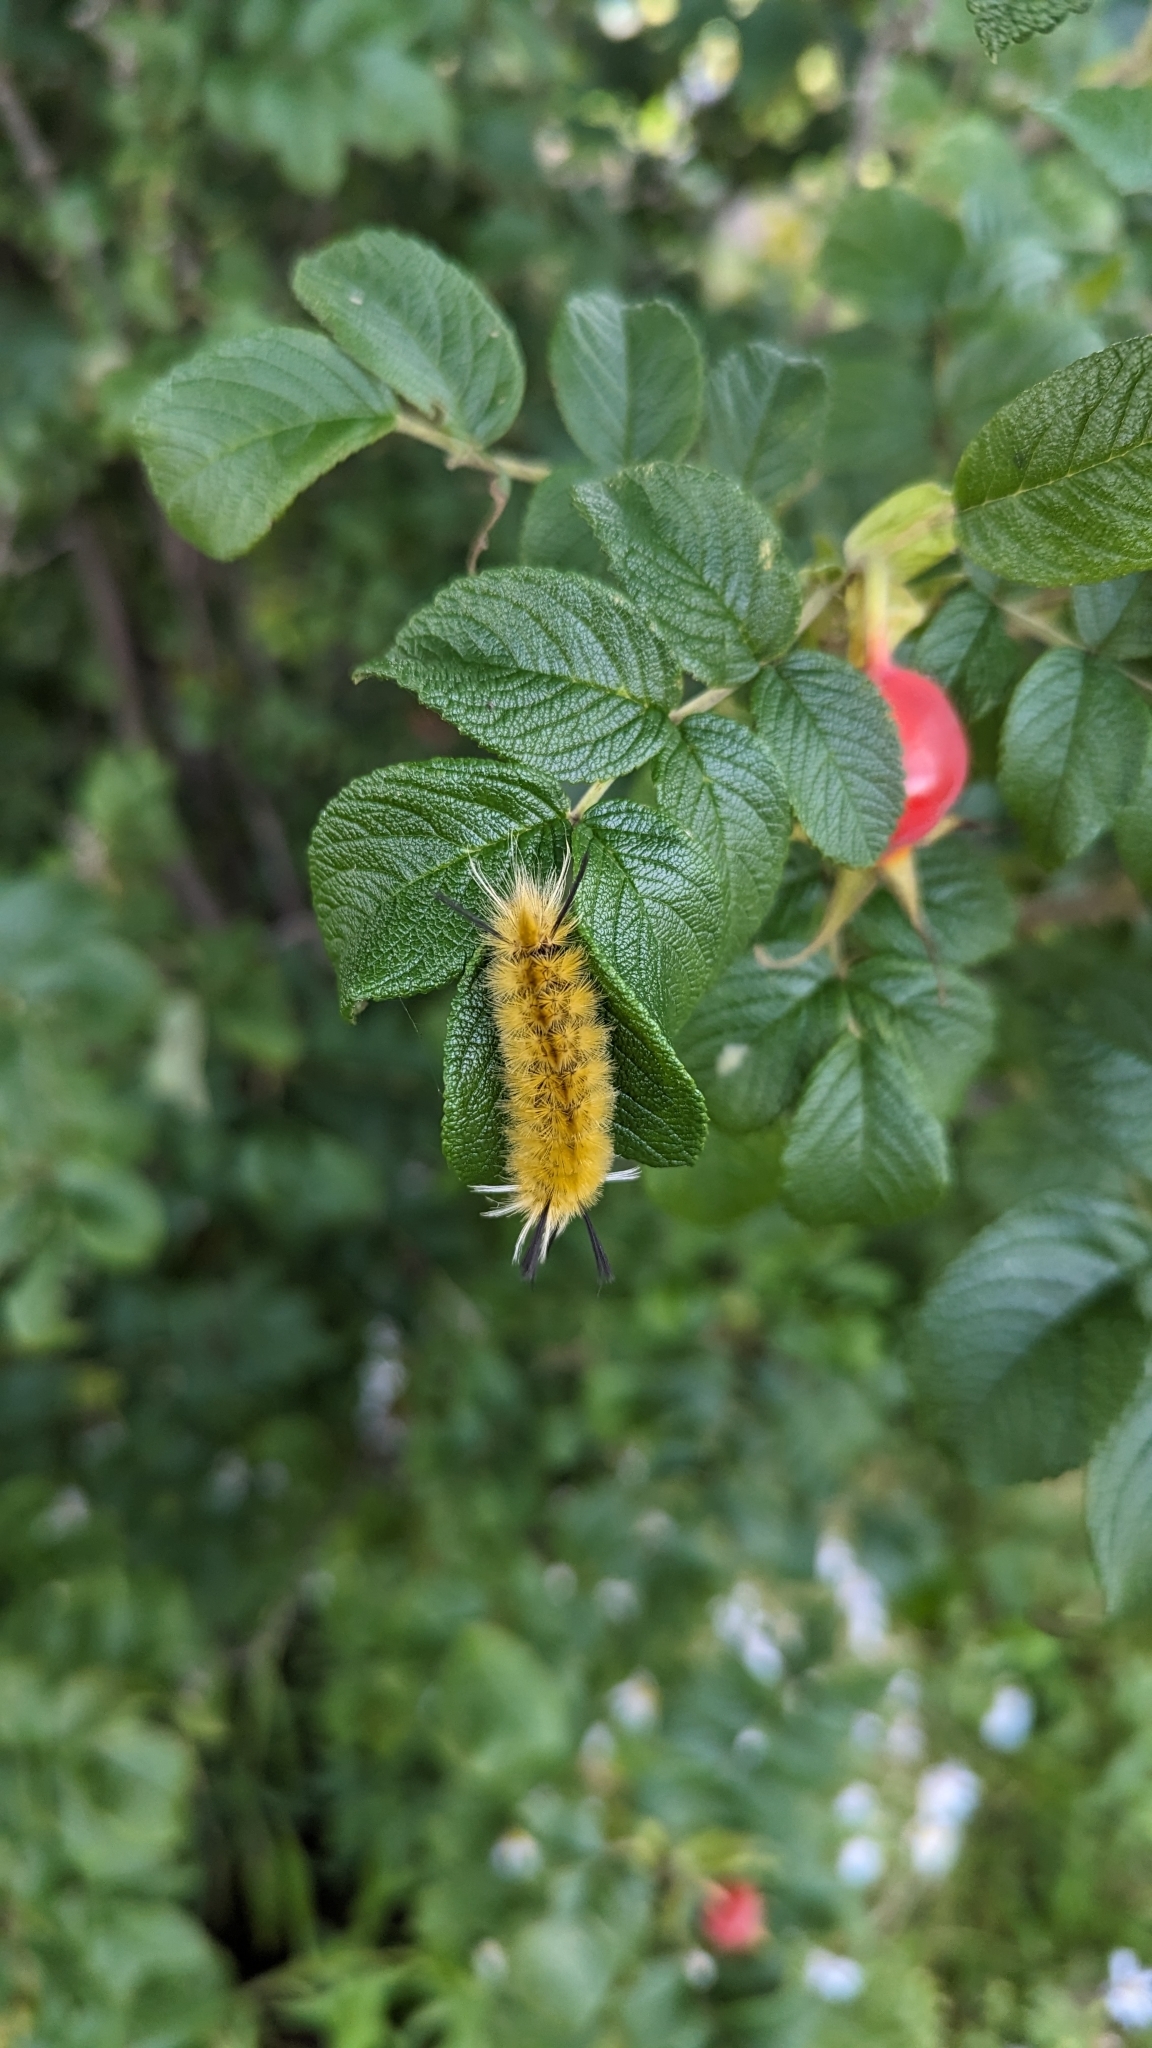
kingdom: Animalia
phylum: Arthropoda
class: Insecta
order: Lepidoptera
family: Erebidae
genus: Halysidota
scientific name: Halysidota tessellaris
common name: Banded tussock moth
